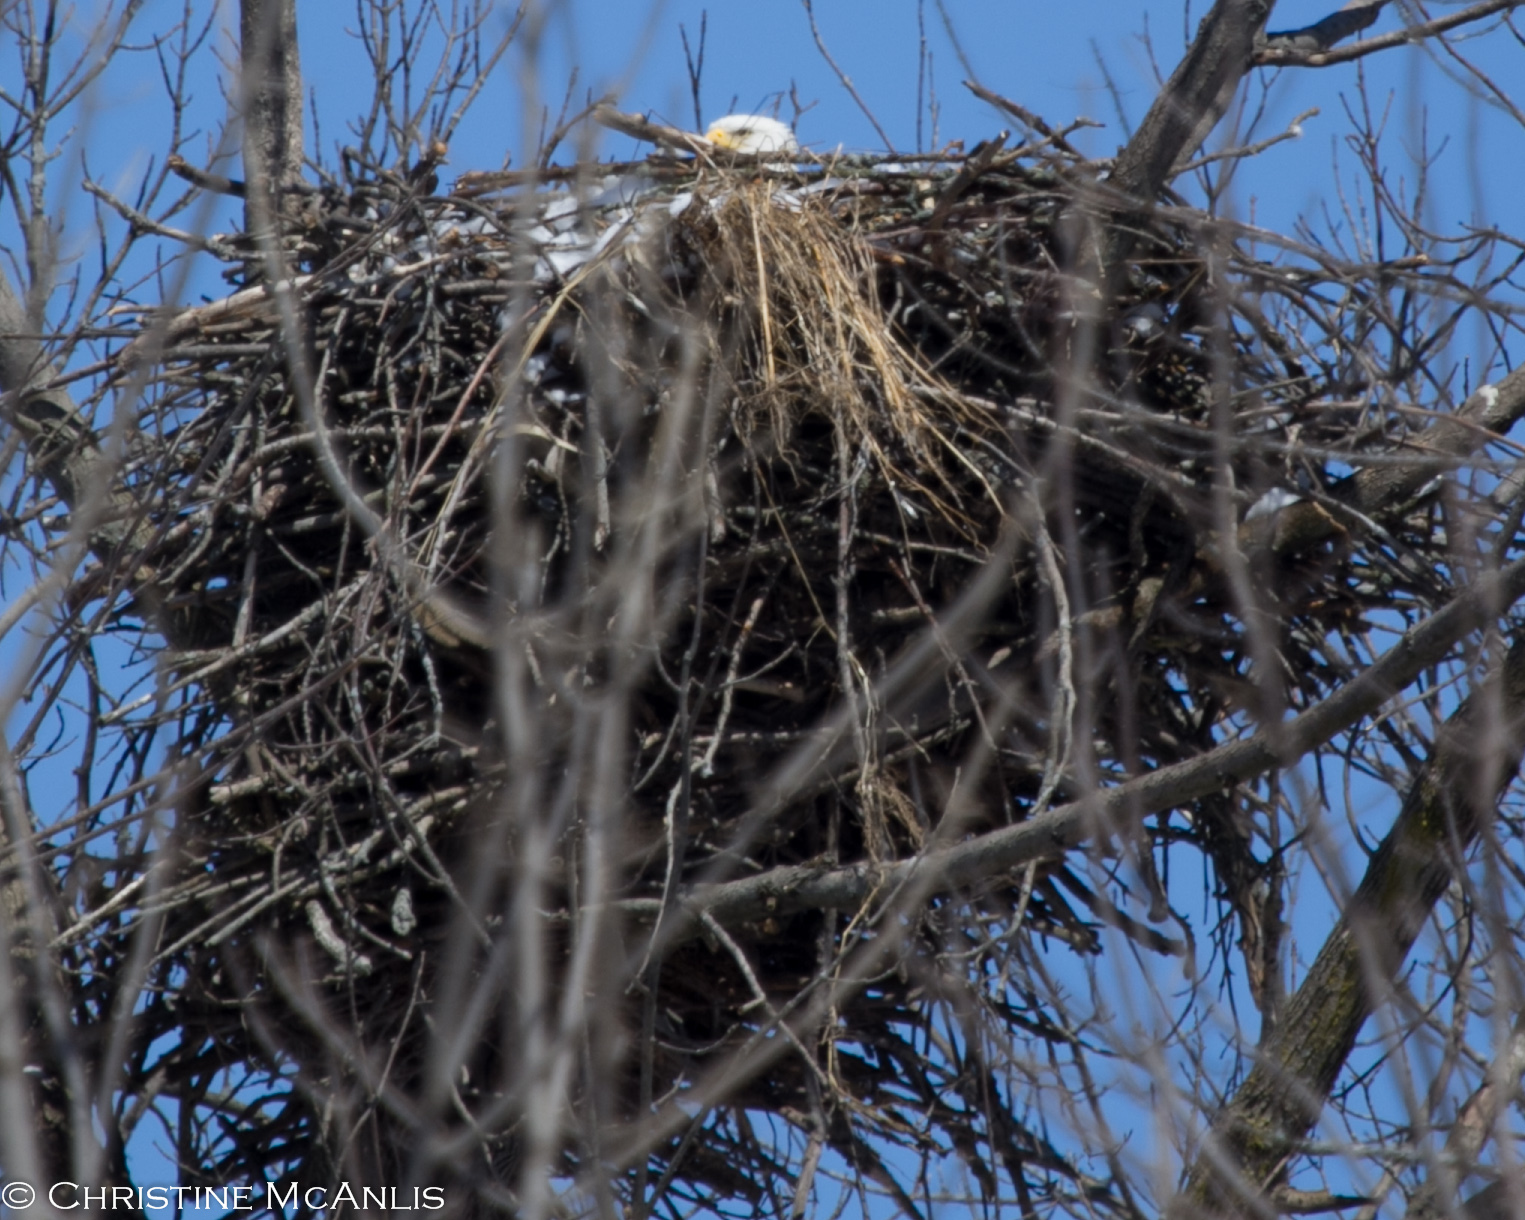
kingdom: Animalia
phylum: Chordata
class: Aves
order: Accipitriformes
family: Accipitridae
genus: Haliaeetus
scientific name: Haliaeetus leucocephalus
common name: Bald eagle
